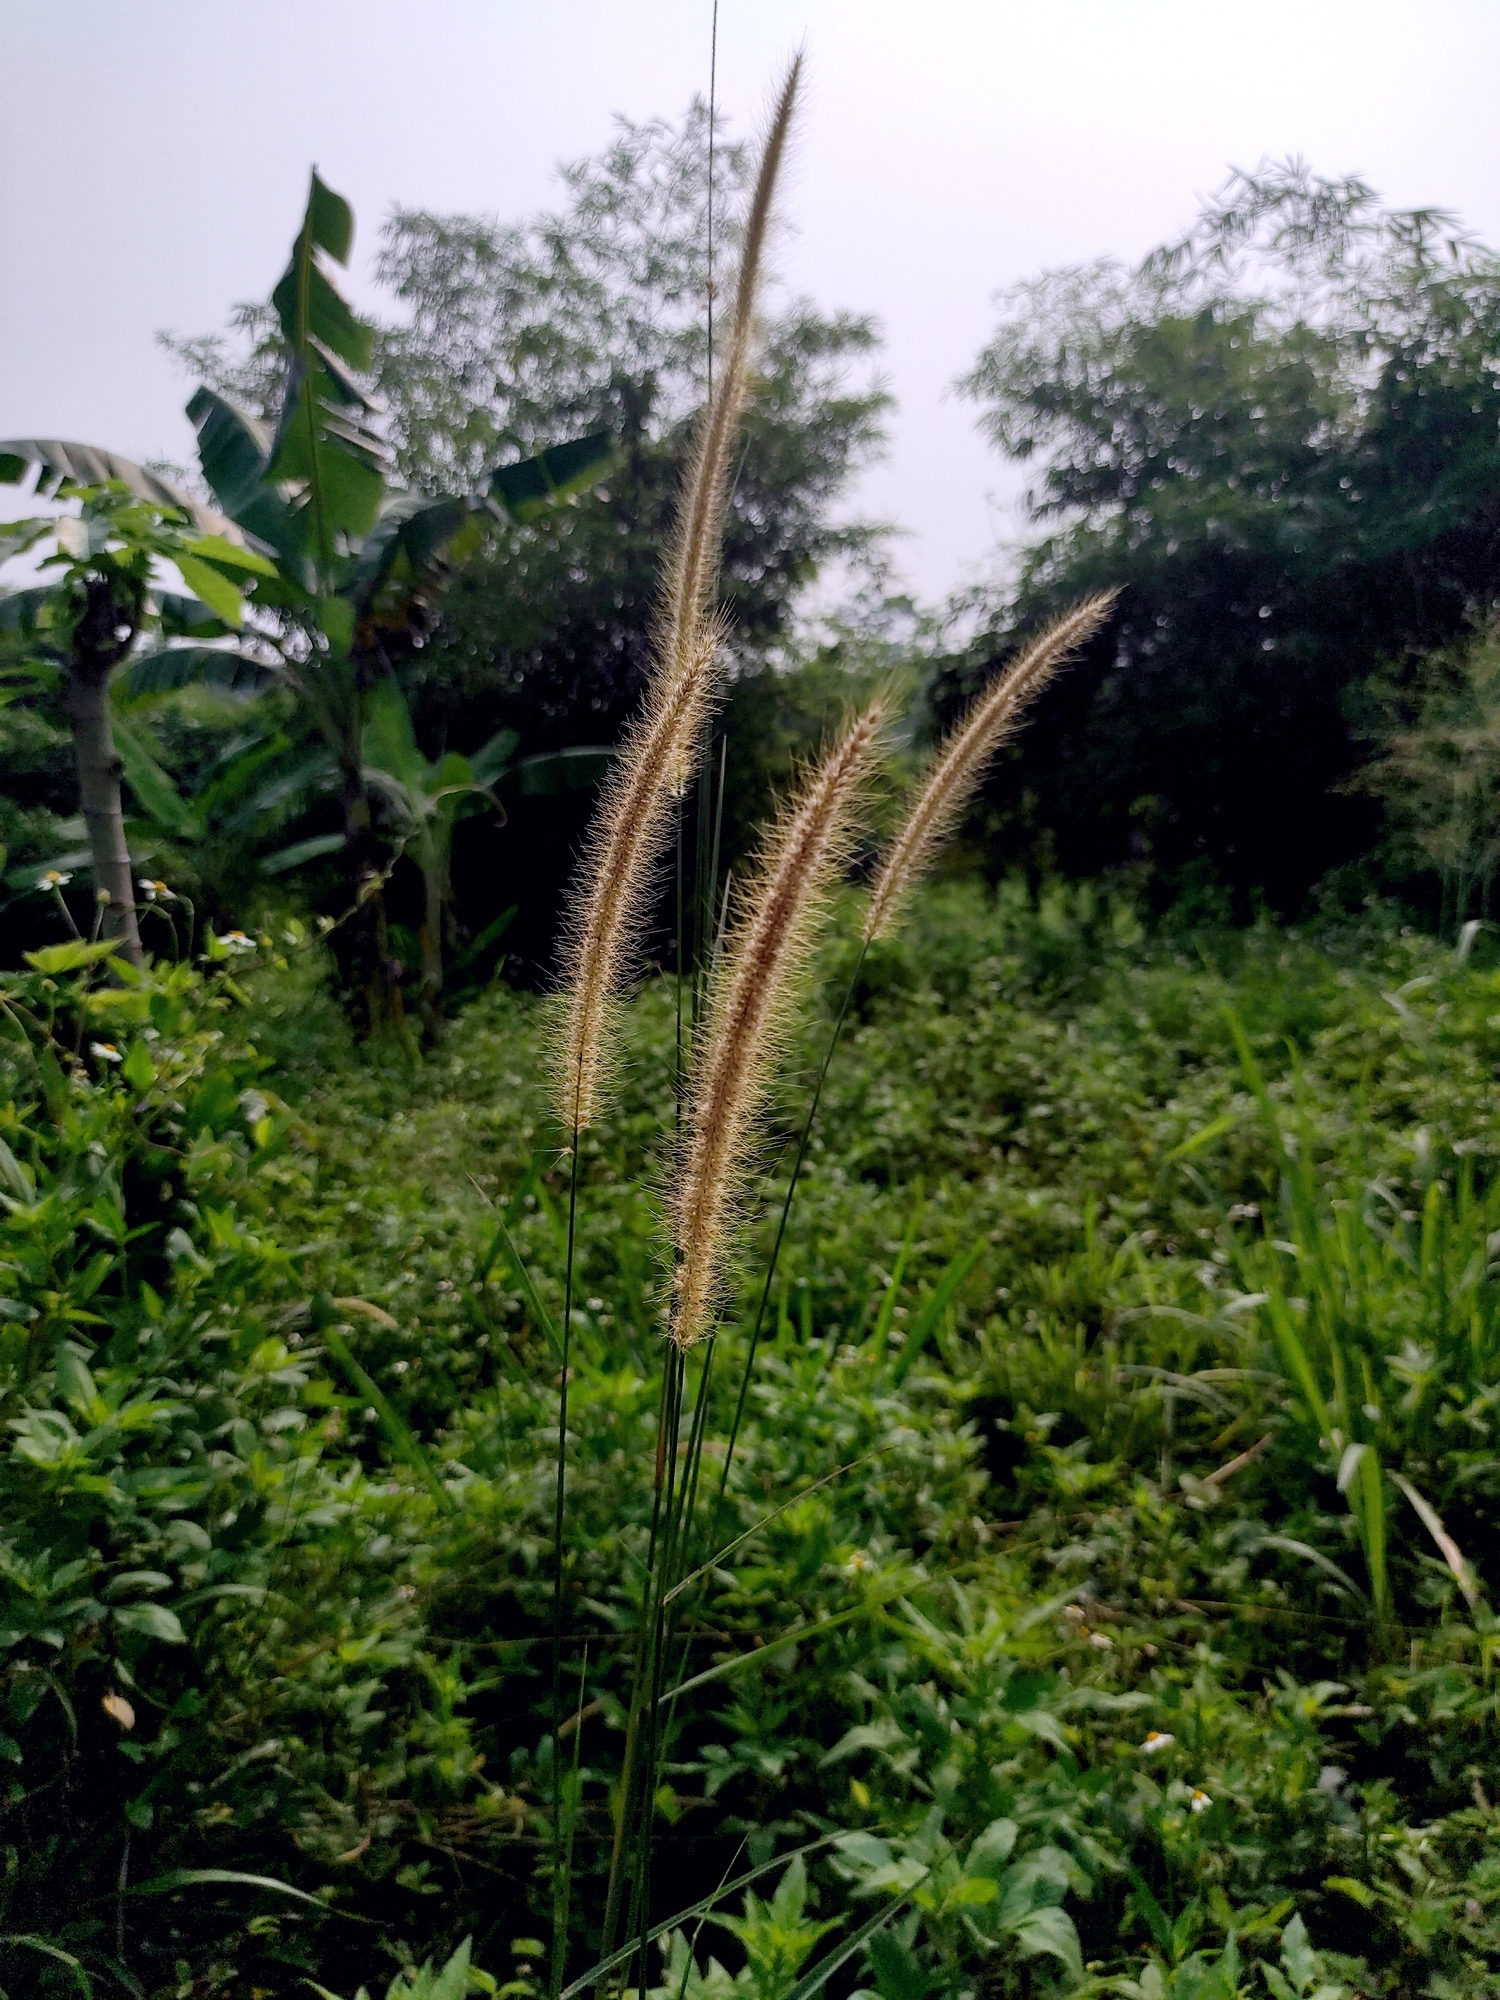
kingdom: Plantae
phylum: Tracheophyta
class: Liliopsida
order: Poales
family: Poaceae
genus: Cenchrus
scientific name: Cenchrus setosus
